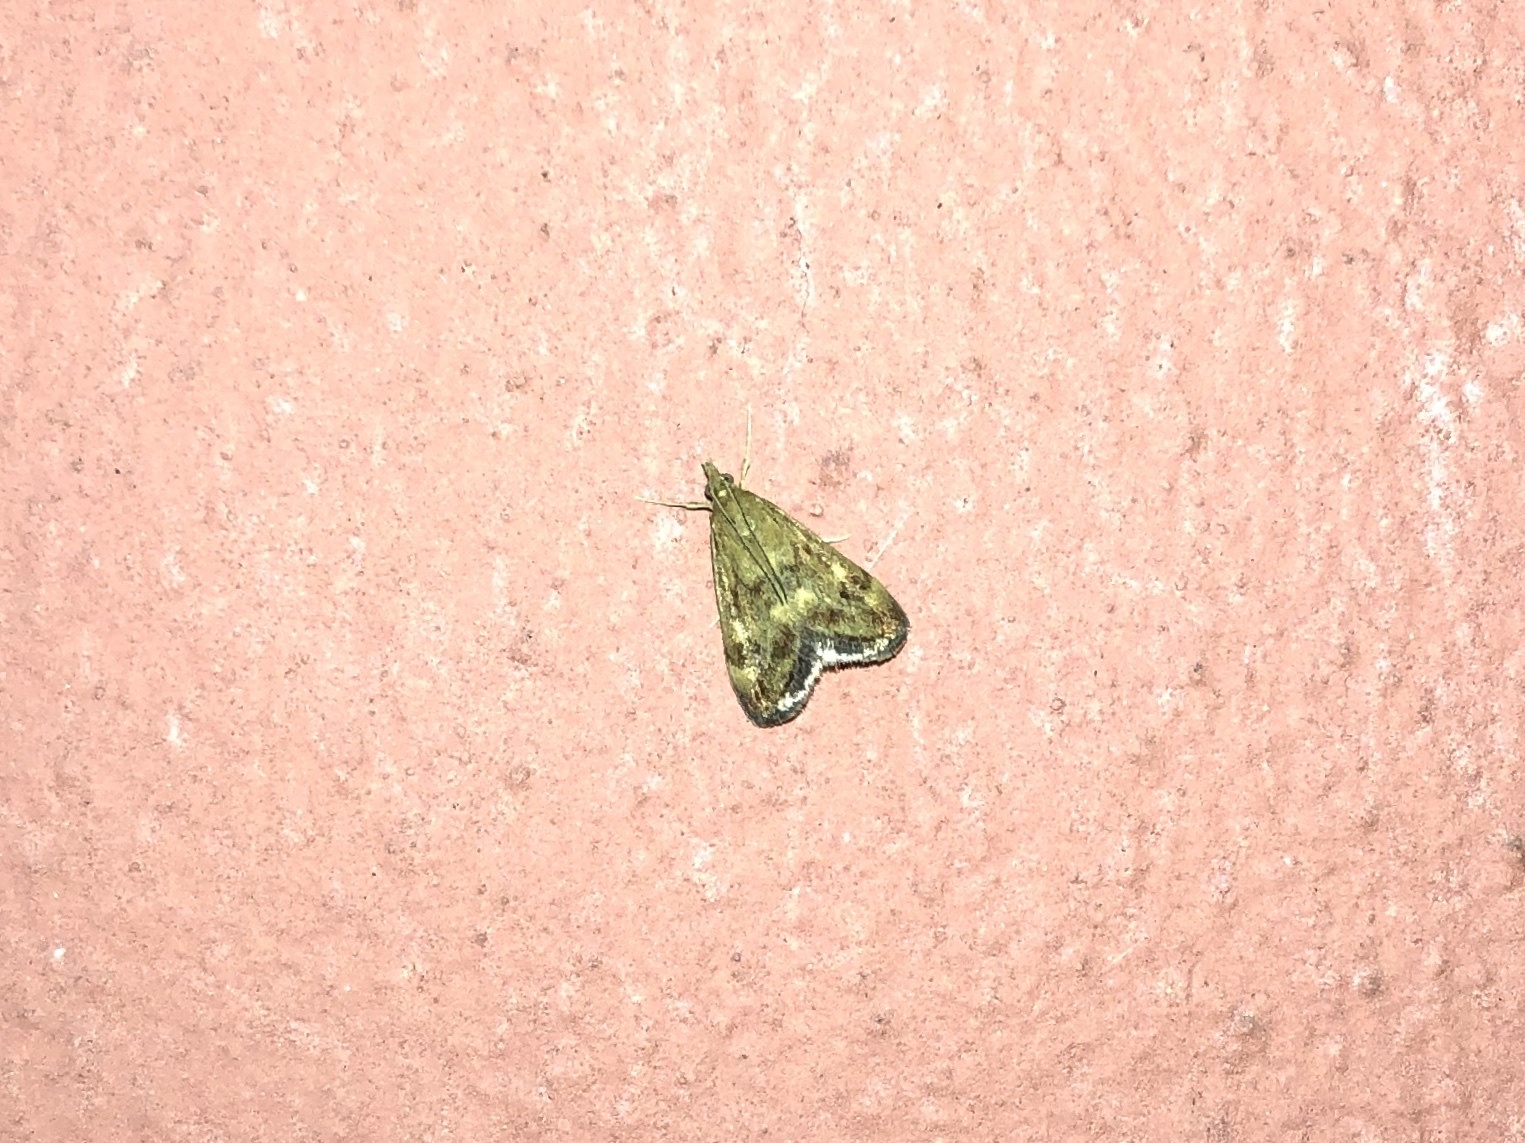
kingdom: Animalia
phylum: Arthropoda
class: Insecta
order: Lepidoptera
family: Crambidae
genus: Pyrausta
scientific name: Pyrausta despicata
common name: Straw-barred pearl
